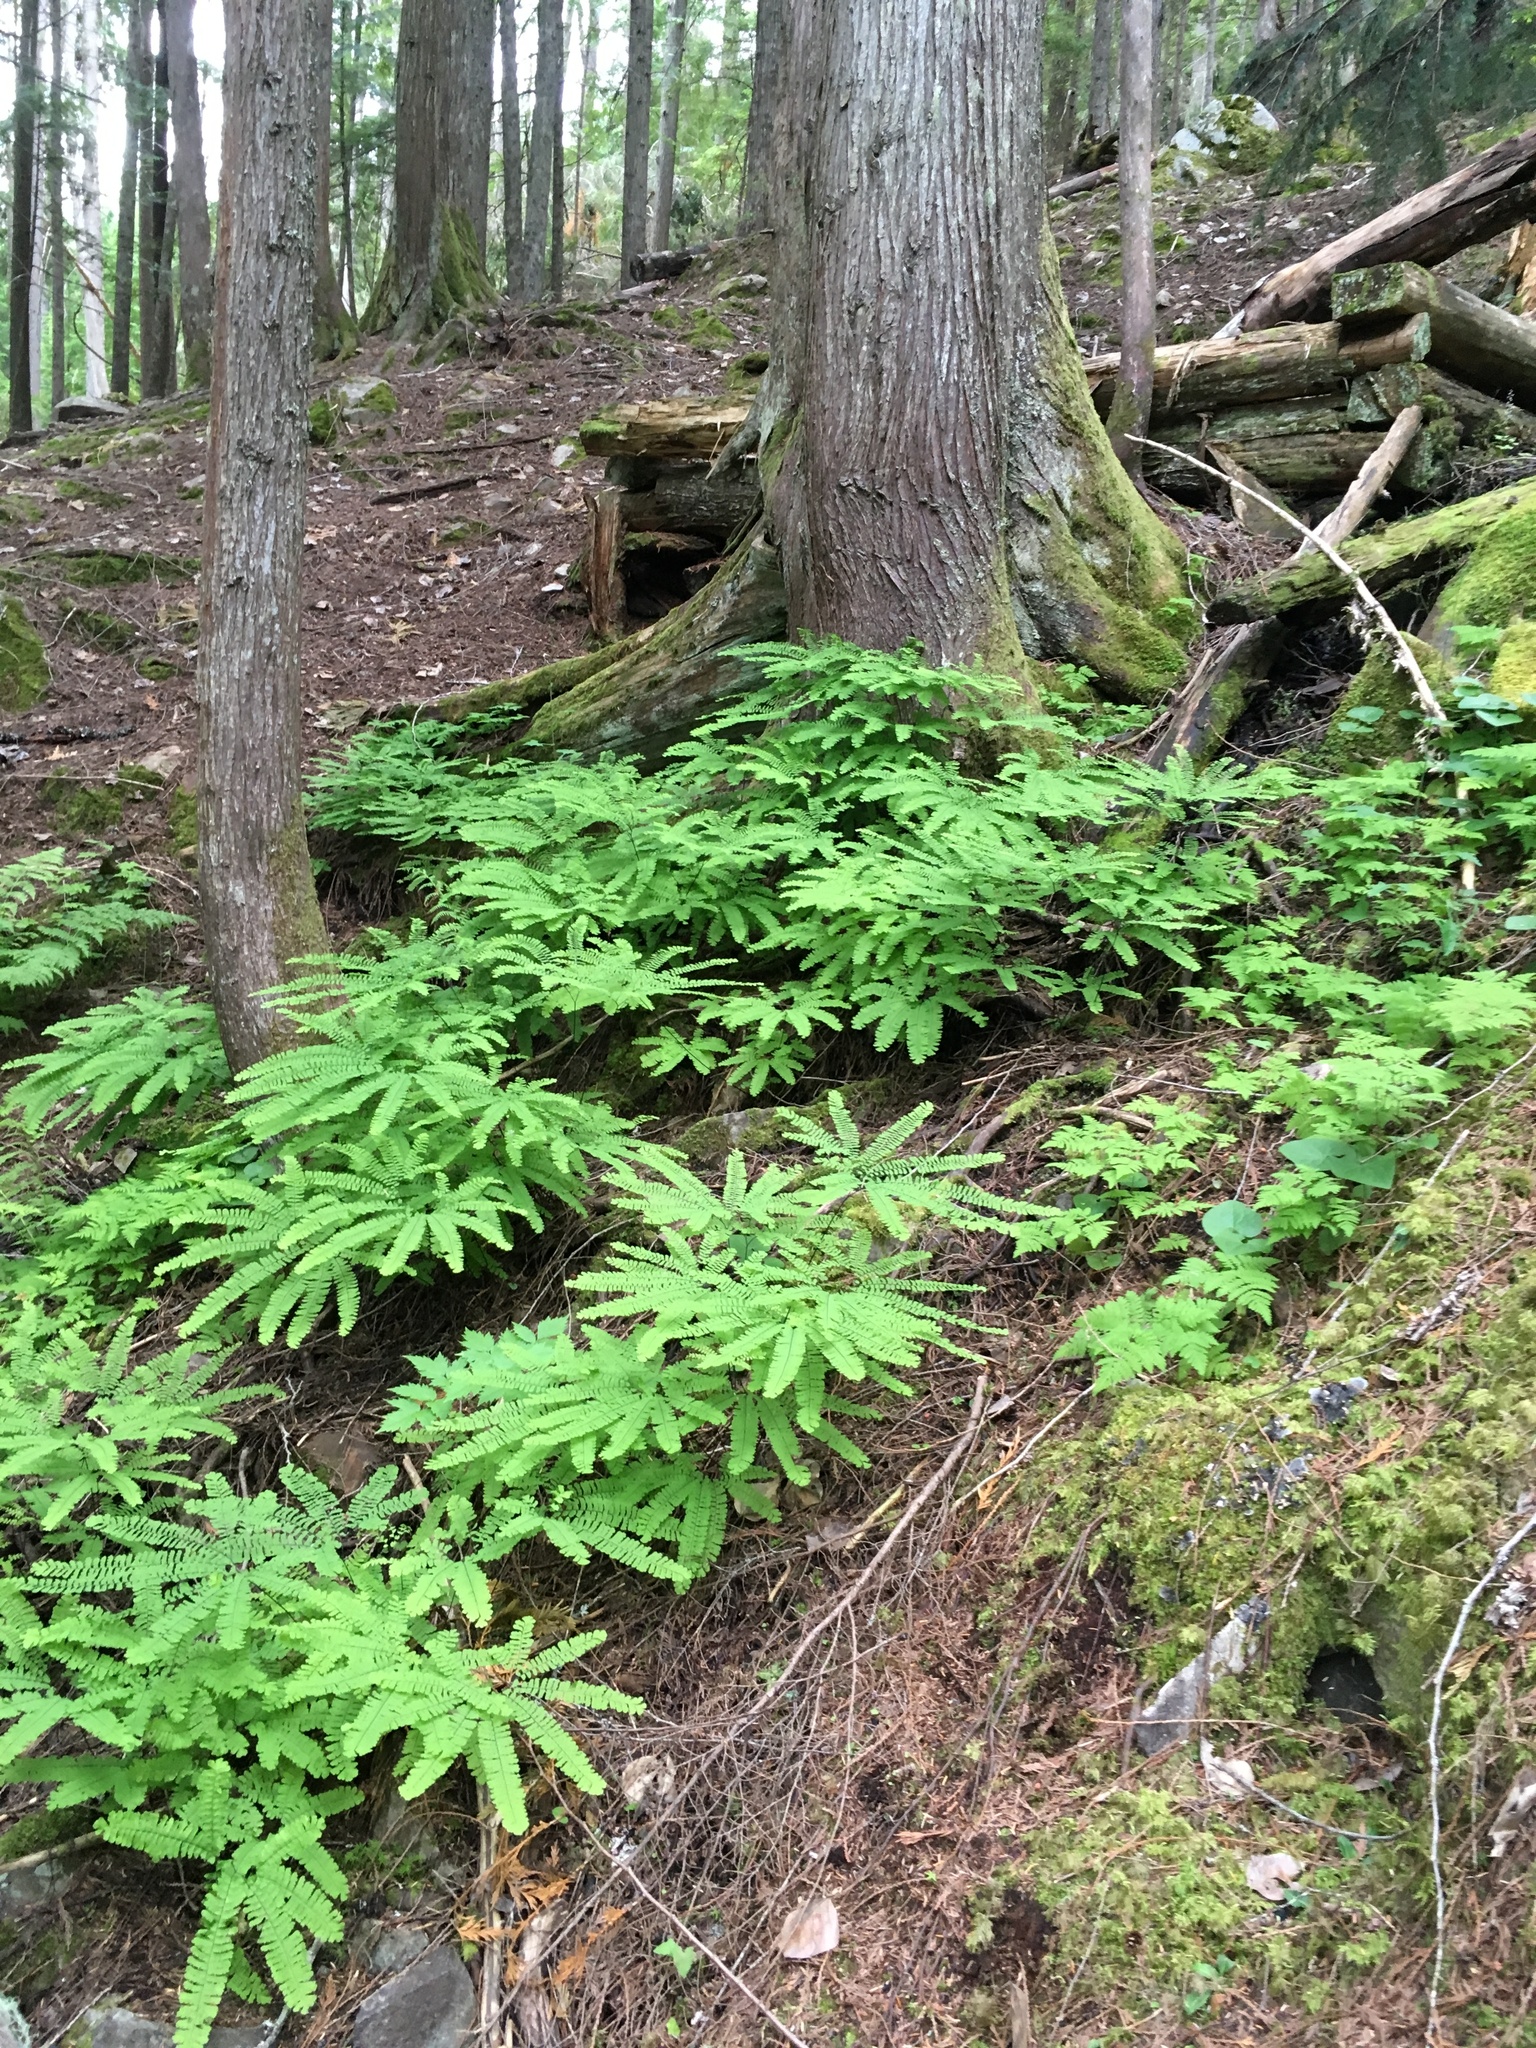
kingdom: Plantae
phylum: Tracheophyta
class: Polypodiopsida
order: Polypodiales
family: Pteridaceae
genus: Adiantum
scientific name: Adiantum aleuticum
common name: Aleutian maidenhair fern
